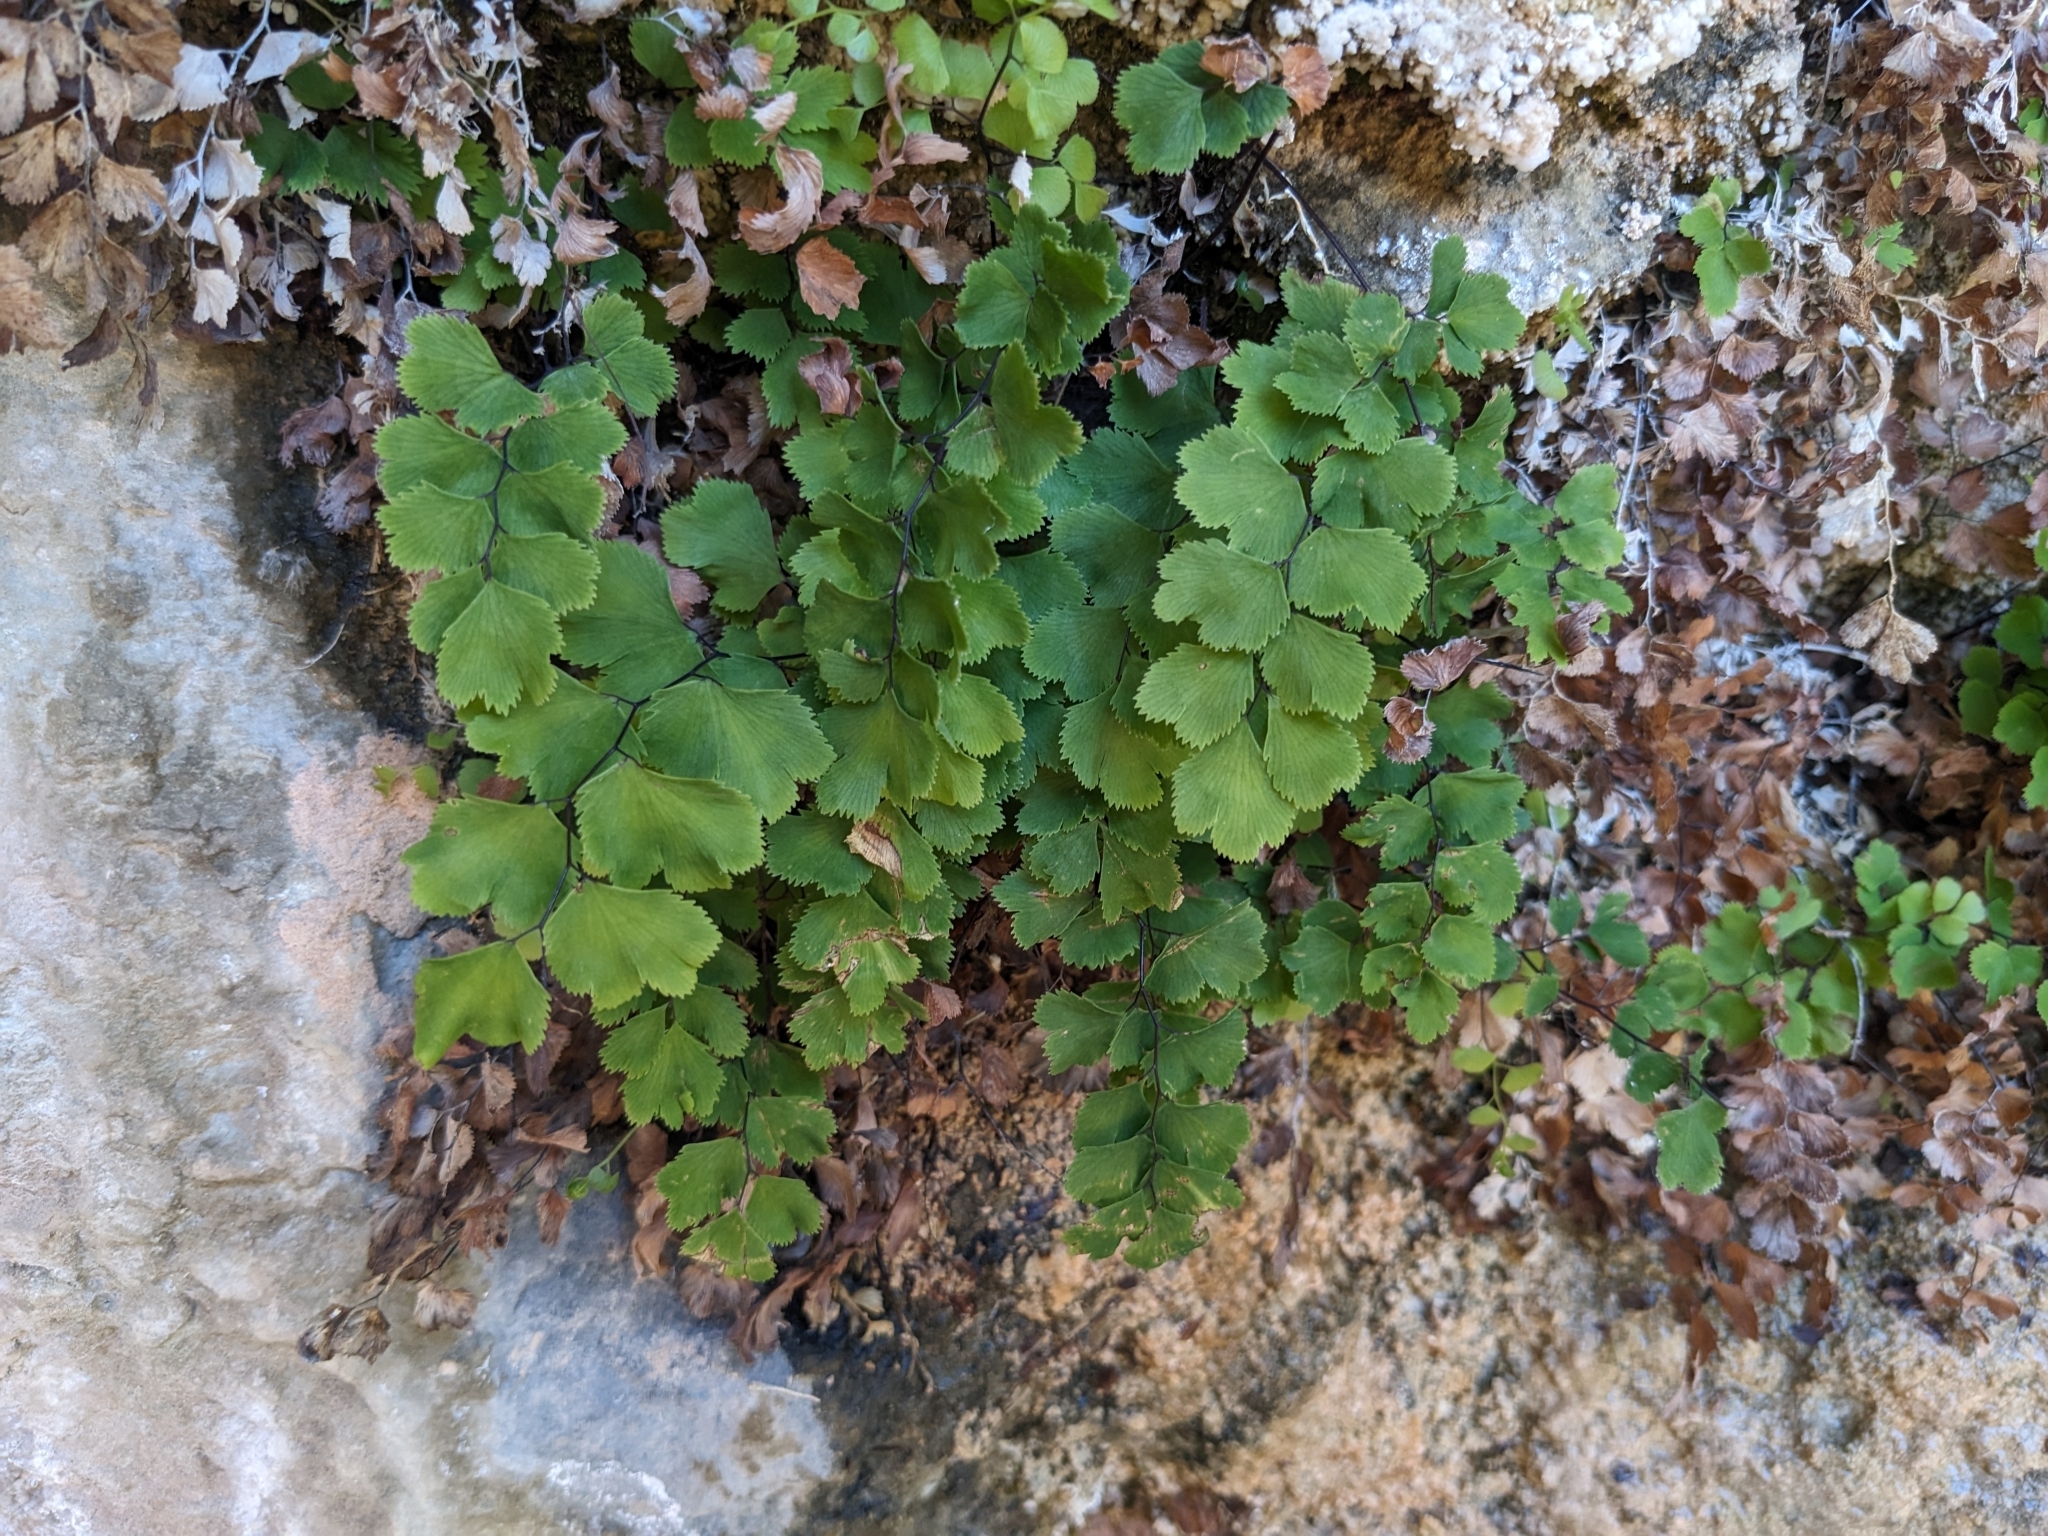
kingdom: Plantae
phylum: Tracheophyta
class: Polypodiopsida
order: Polypodiales
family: Pteridaceae
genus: Adiantum
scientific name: Adiantum capillus-veneris
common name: Maidenhair fern
